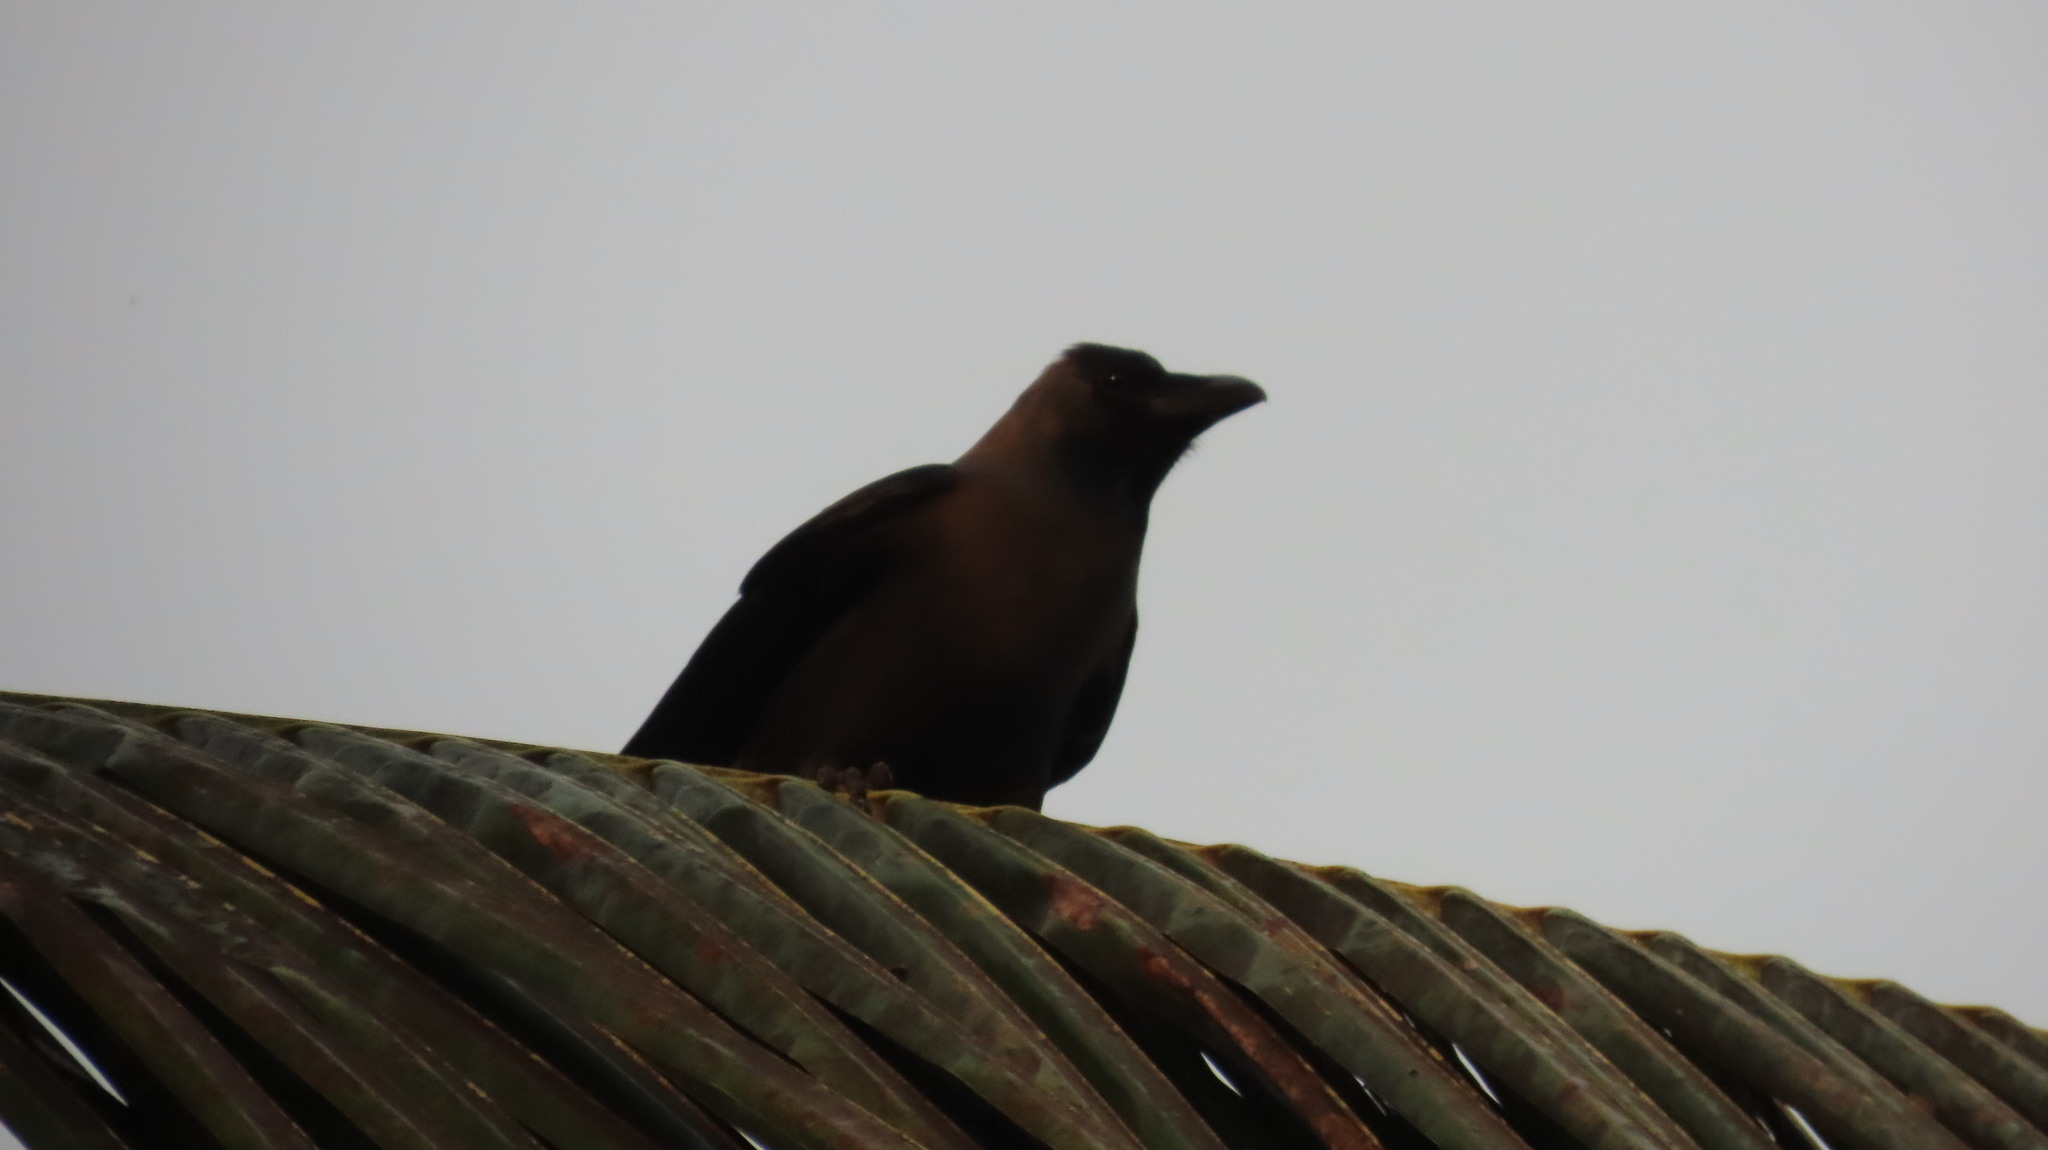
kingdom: Animalia
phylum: Chordata
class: Aves
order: Passeriformes
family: Corvidae
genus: Corvus
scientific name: Corvus splendens
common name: House crow
